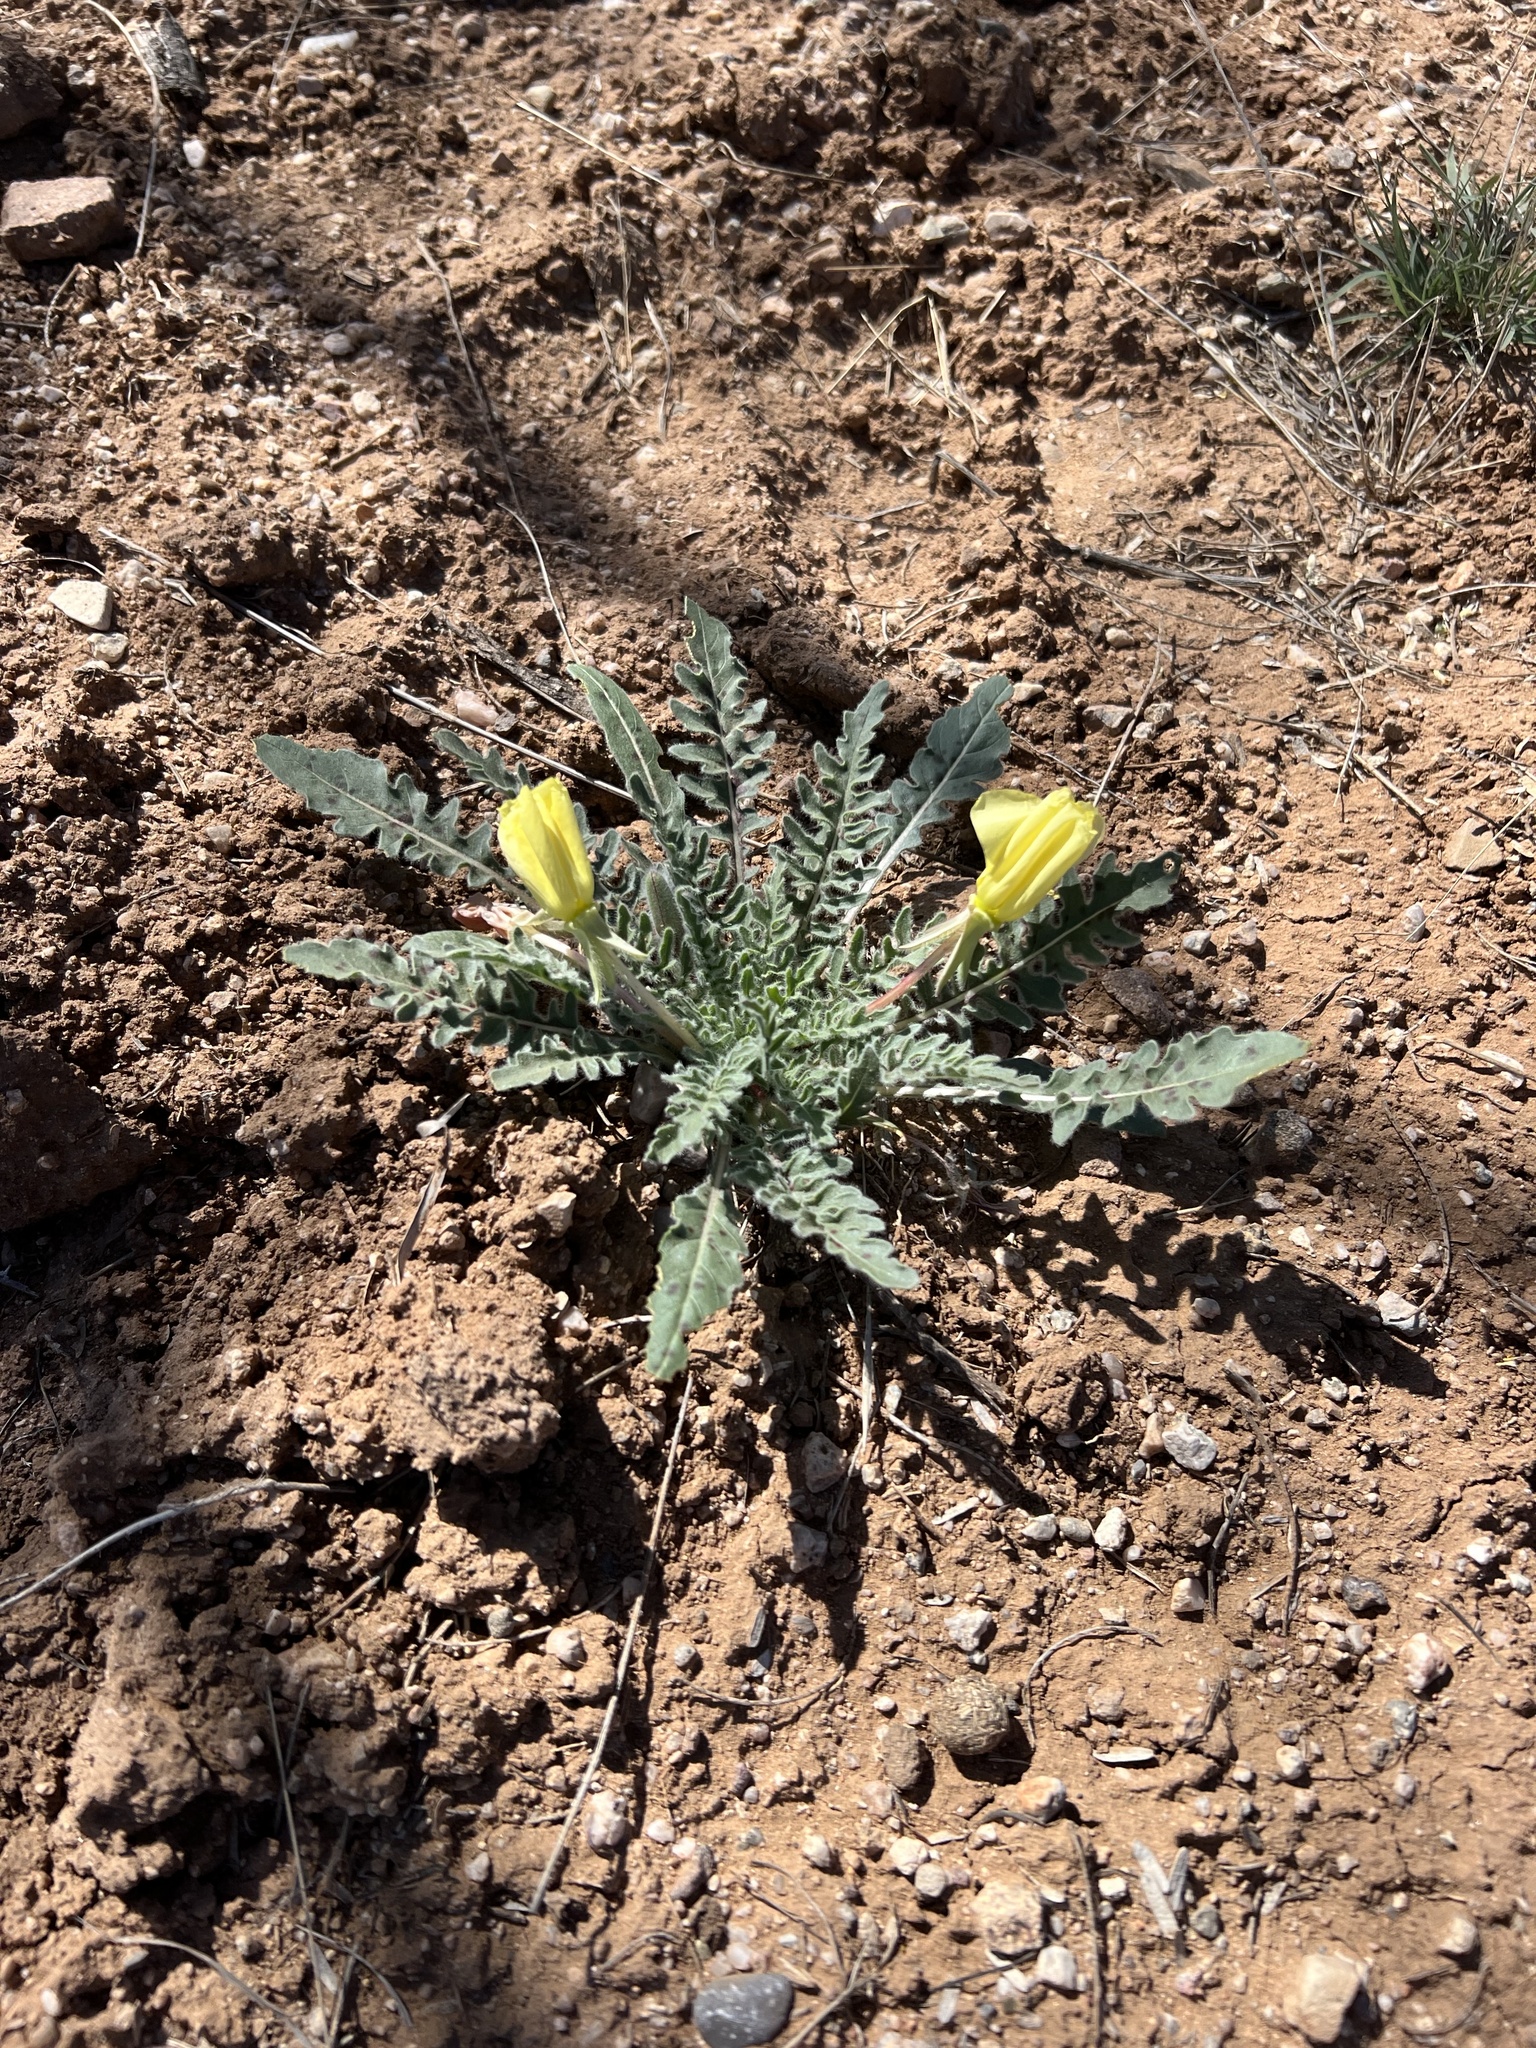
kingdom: Plantae
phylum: Tracheophyta
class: Magnoliopsida
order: Myrtales
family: Onagraceae
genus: Oenothera
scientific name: Oenothera primiveris
